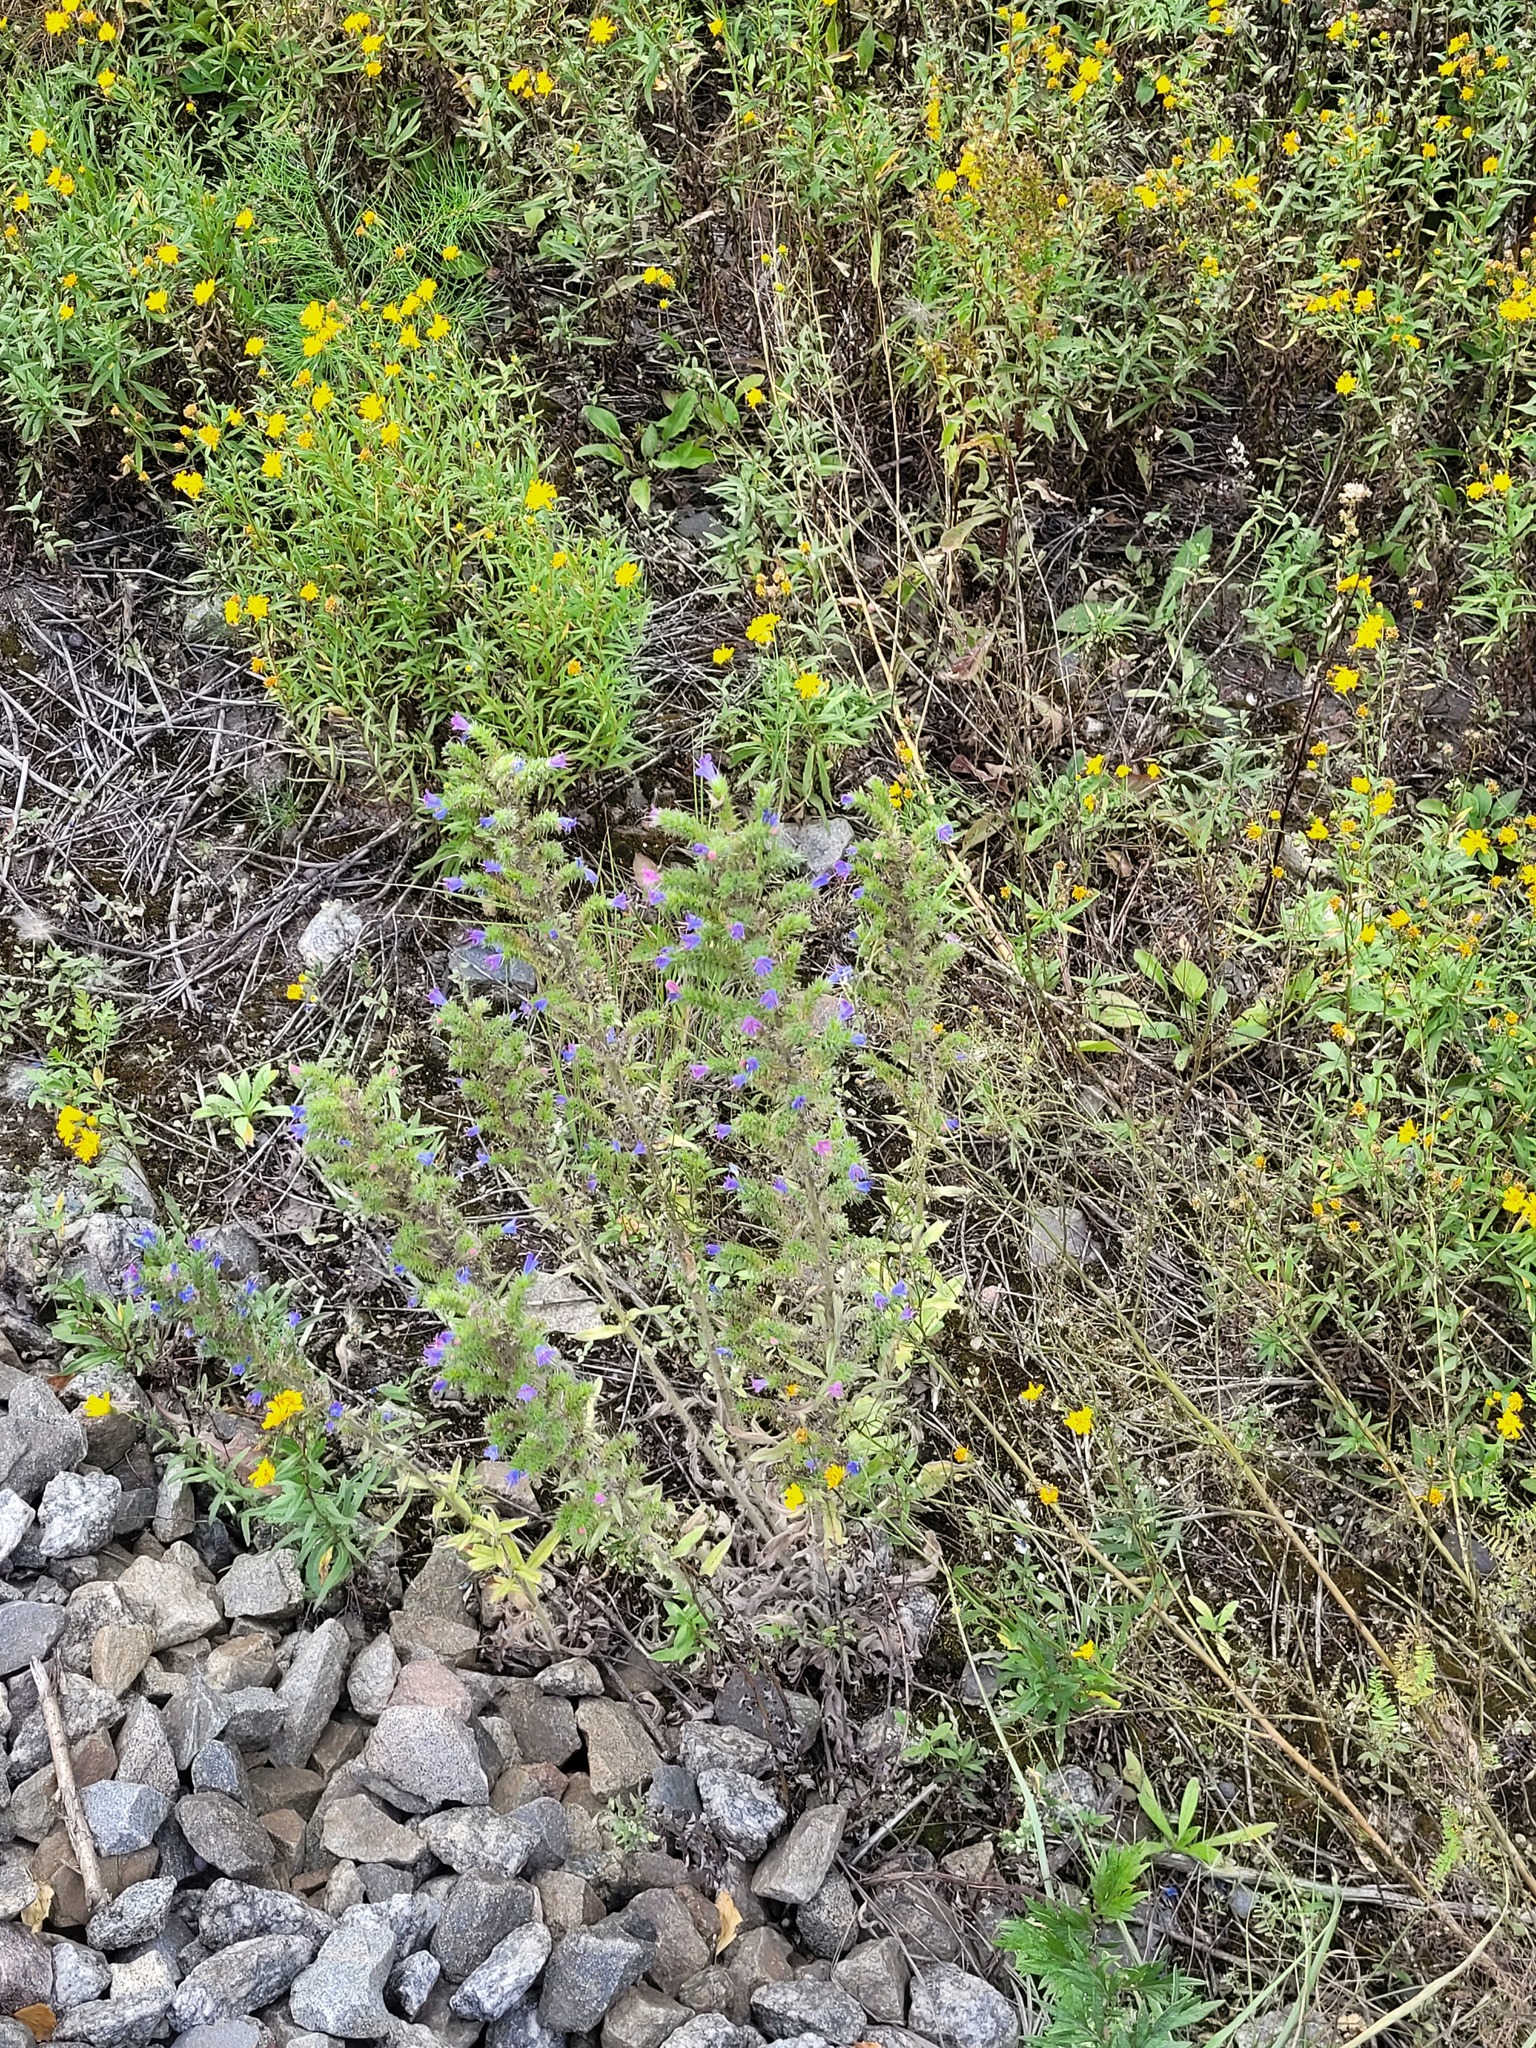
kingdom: Plantae
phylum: Tracheophyta
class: Magnoliopsida
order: Boraginales
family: Boraginaceae
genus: Echium
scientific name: Echium vulgare
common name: Common viper's bugloss
